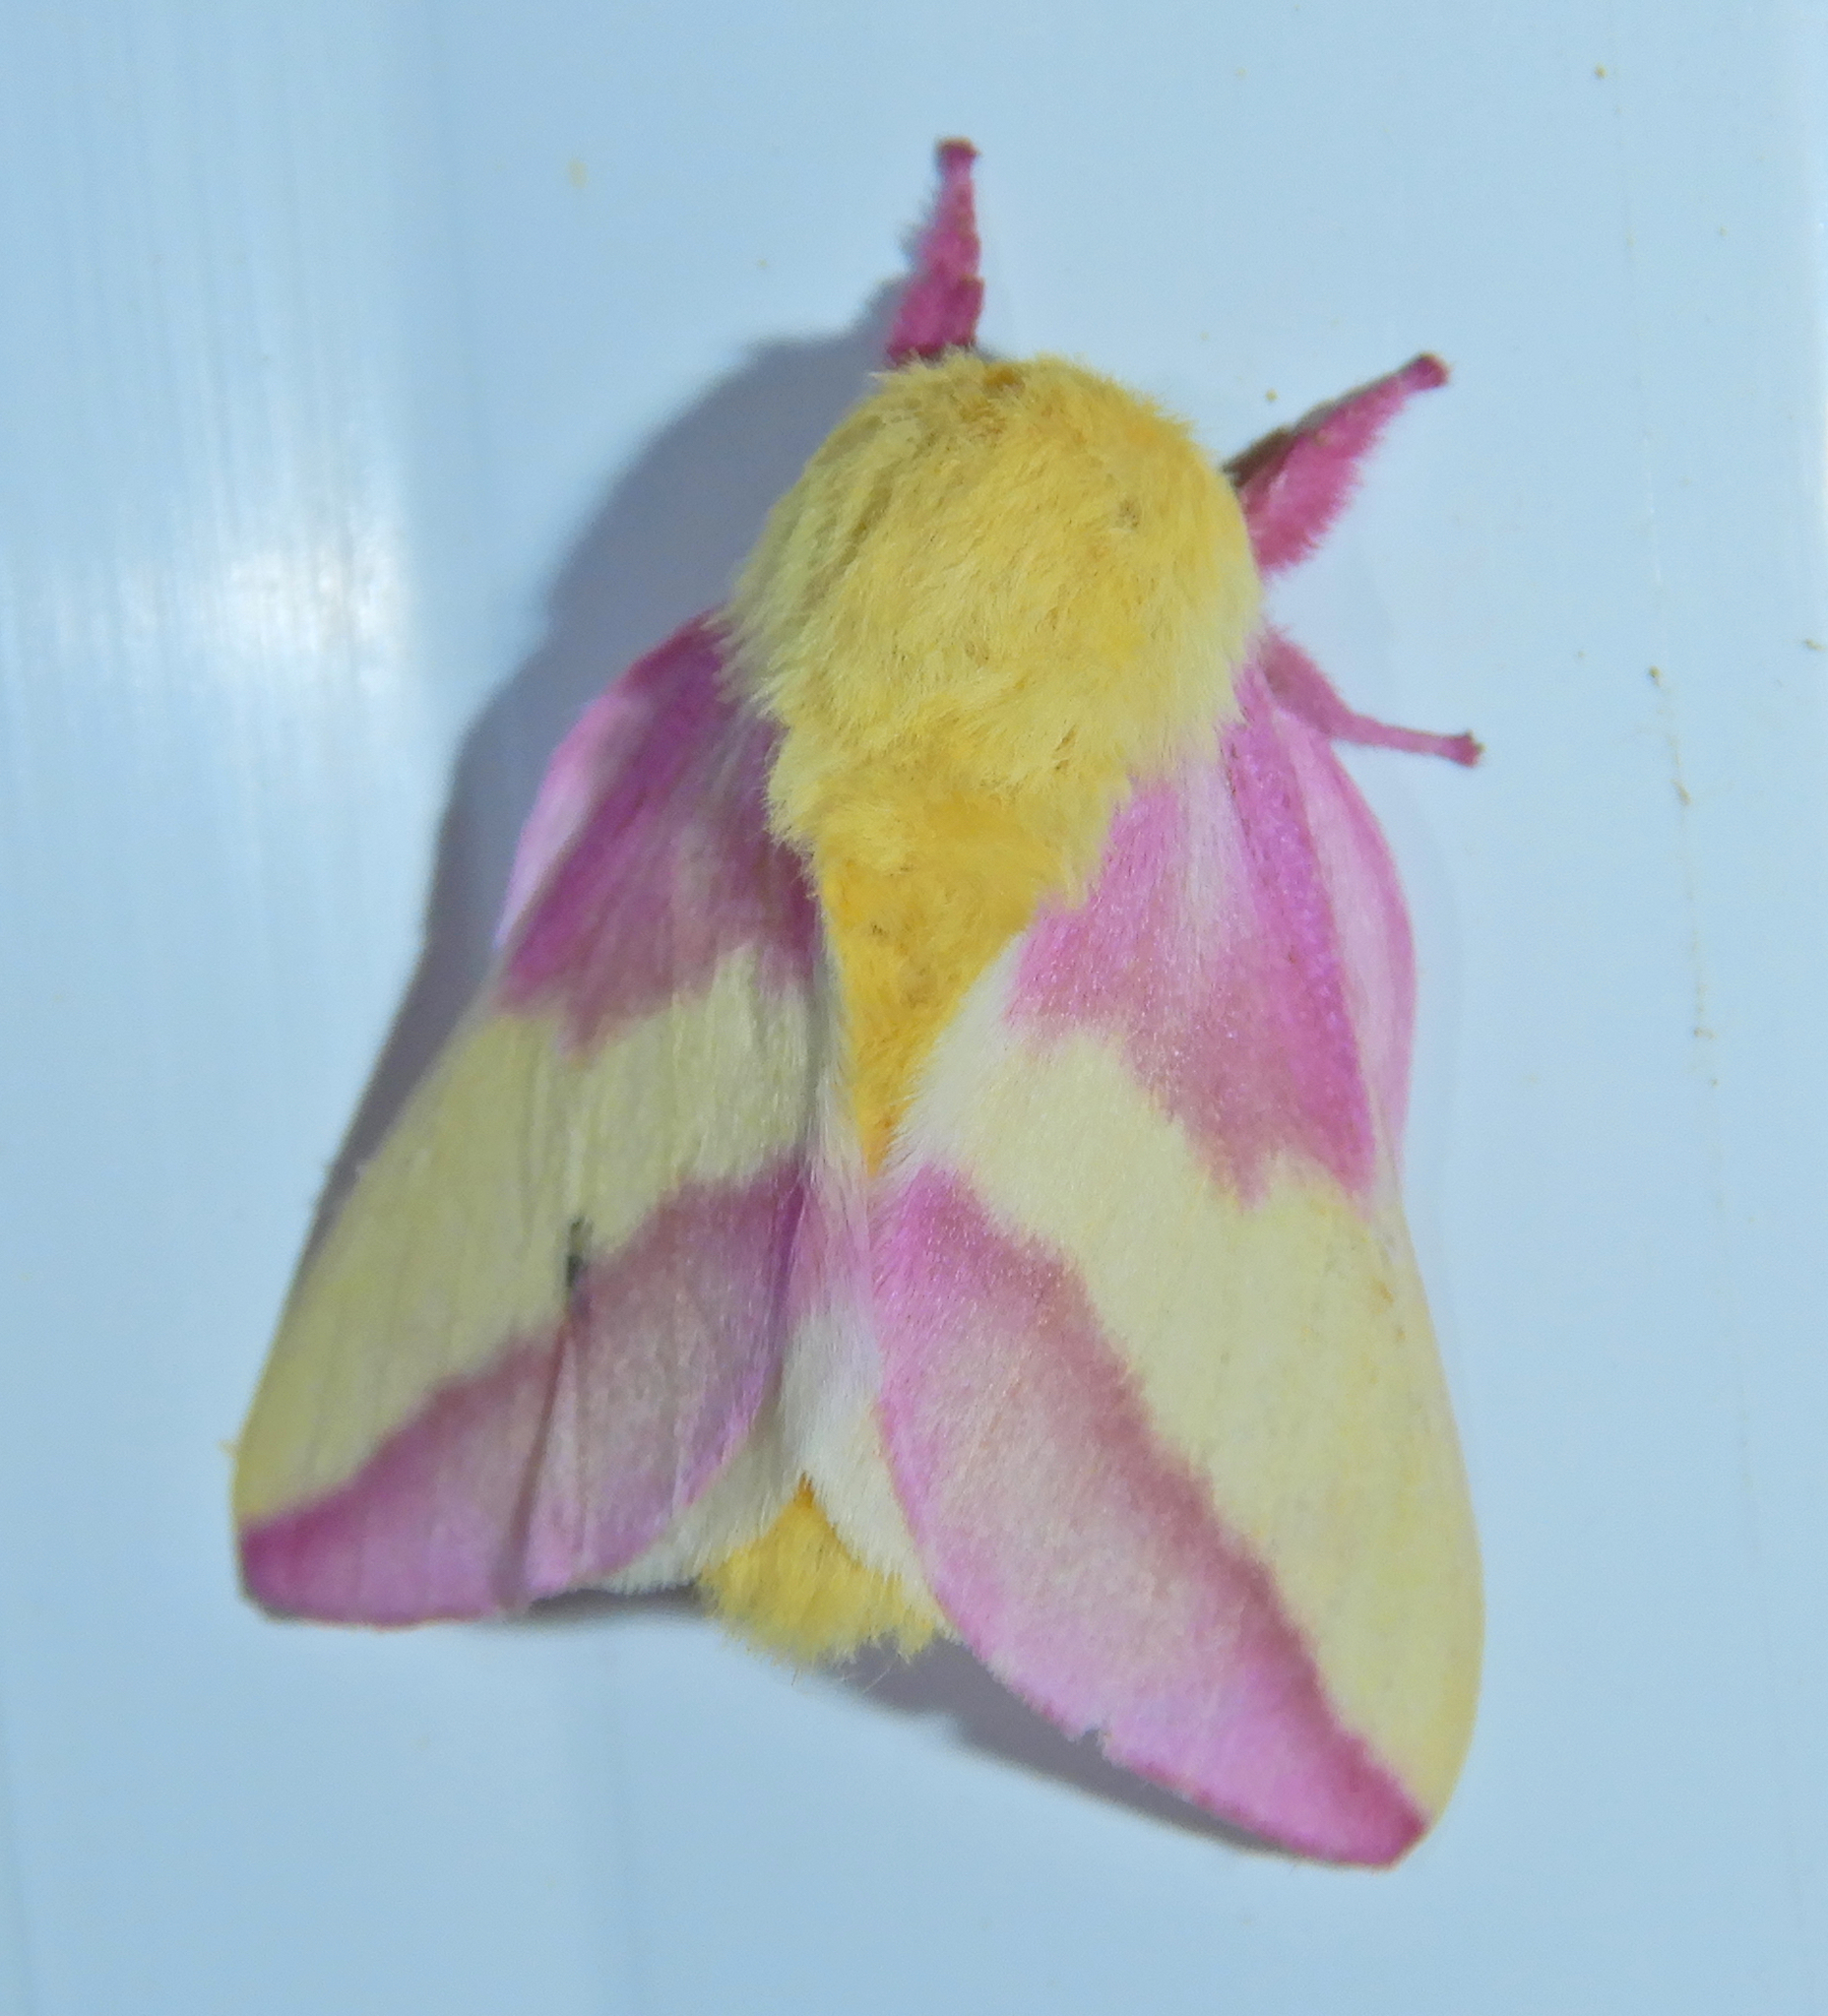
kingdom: Animalia
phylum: Arthropoda
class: Insecta
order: Lepidoptera
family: Saturniidae
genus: Dryocampa
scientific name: Dryocampa rubicunda
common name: Rosy maple moth
